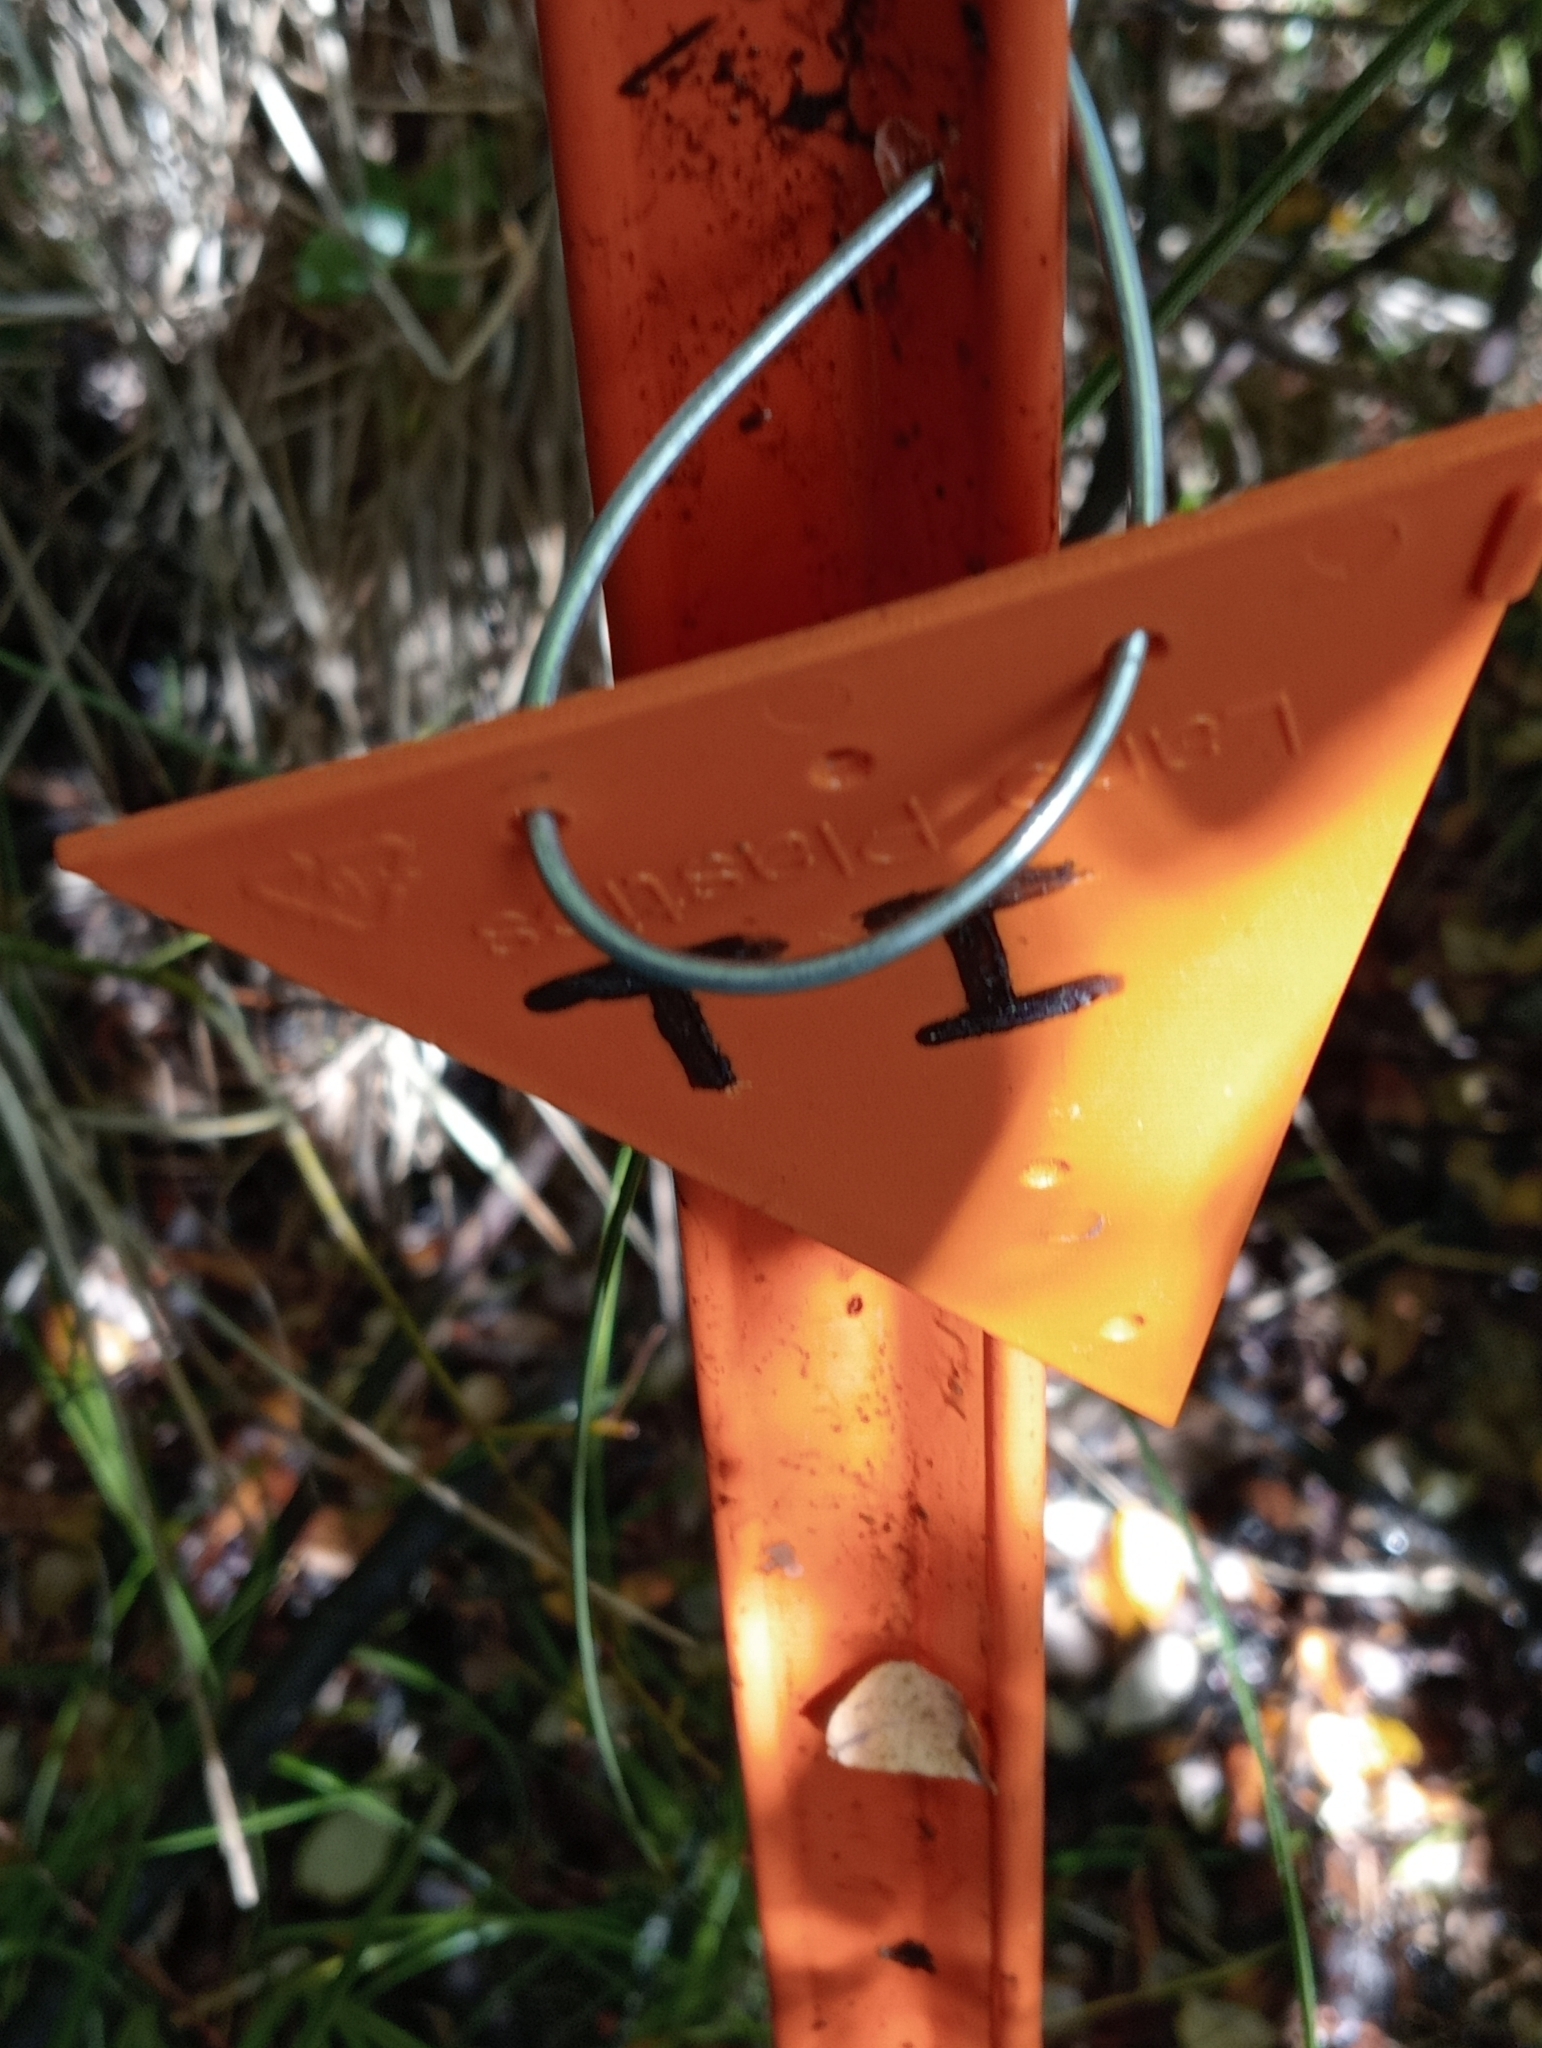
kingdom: Plantae
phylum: Tracheophyta
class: Pinopsida
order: Pinales
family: Podocarpaceae
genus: Podocarpus
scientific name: Podocarpus totara
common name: Totara
